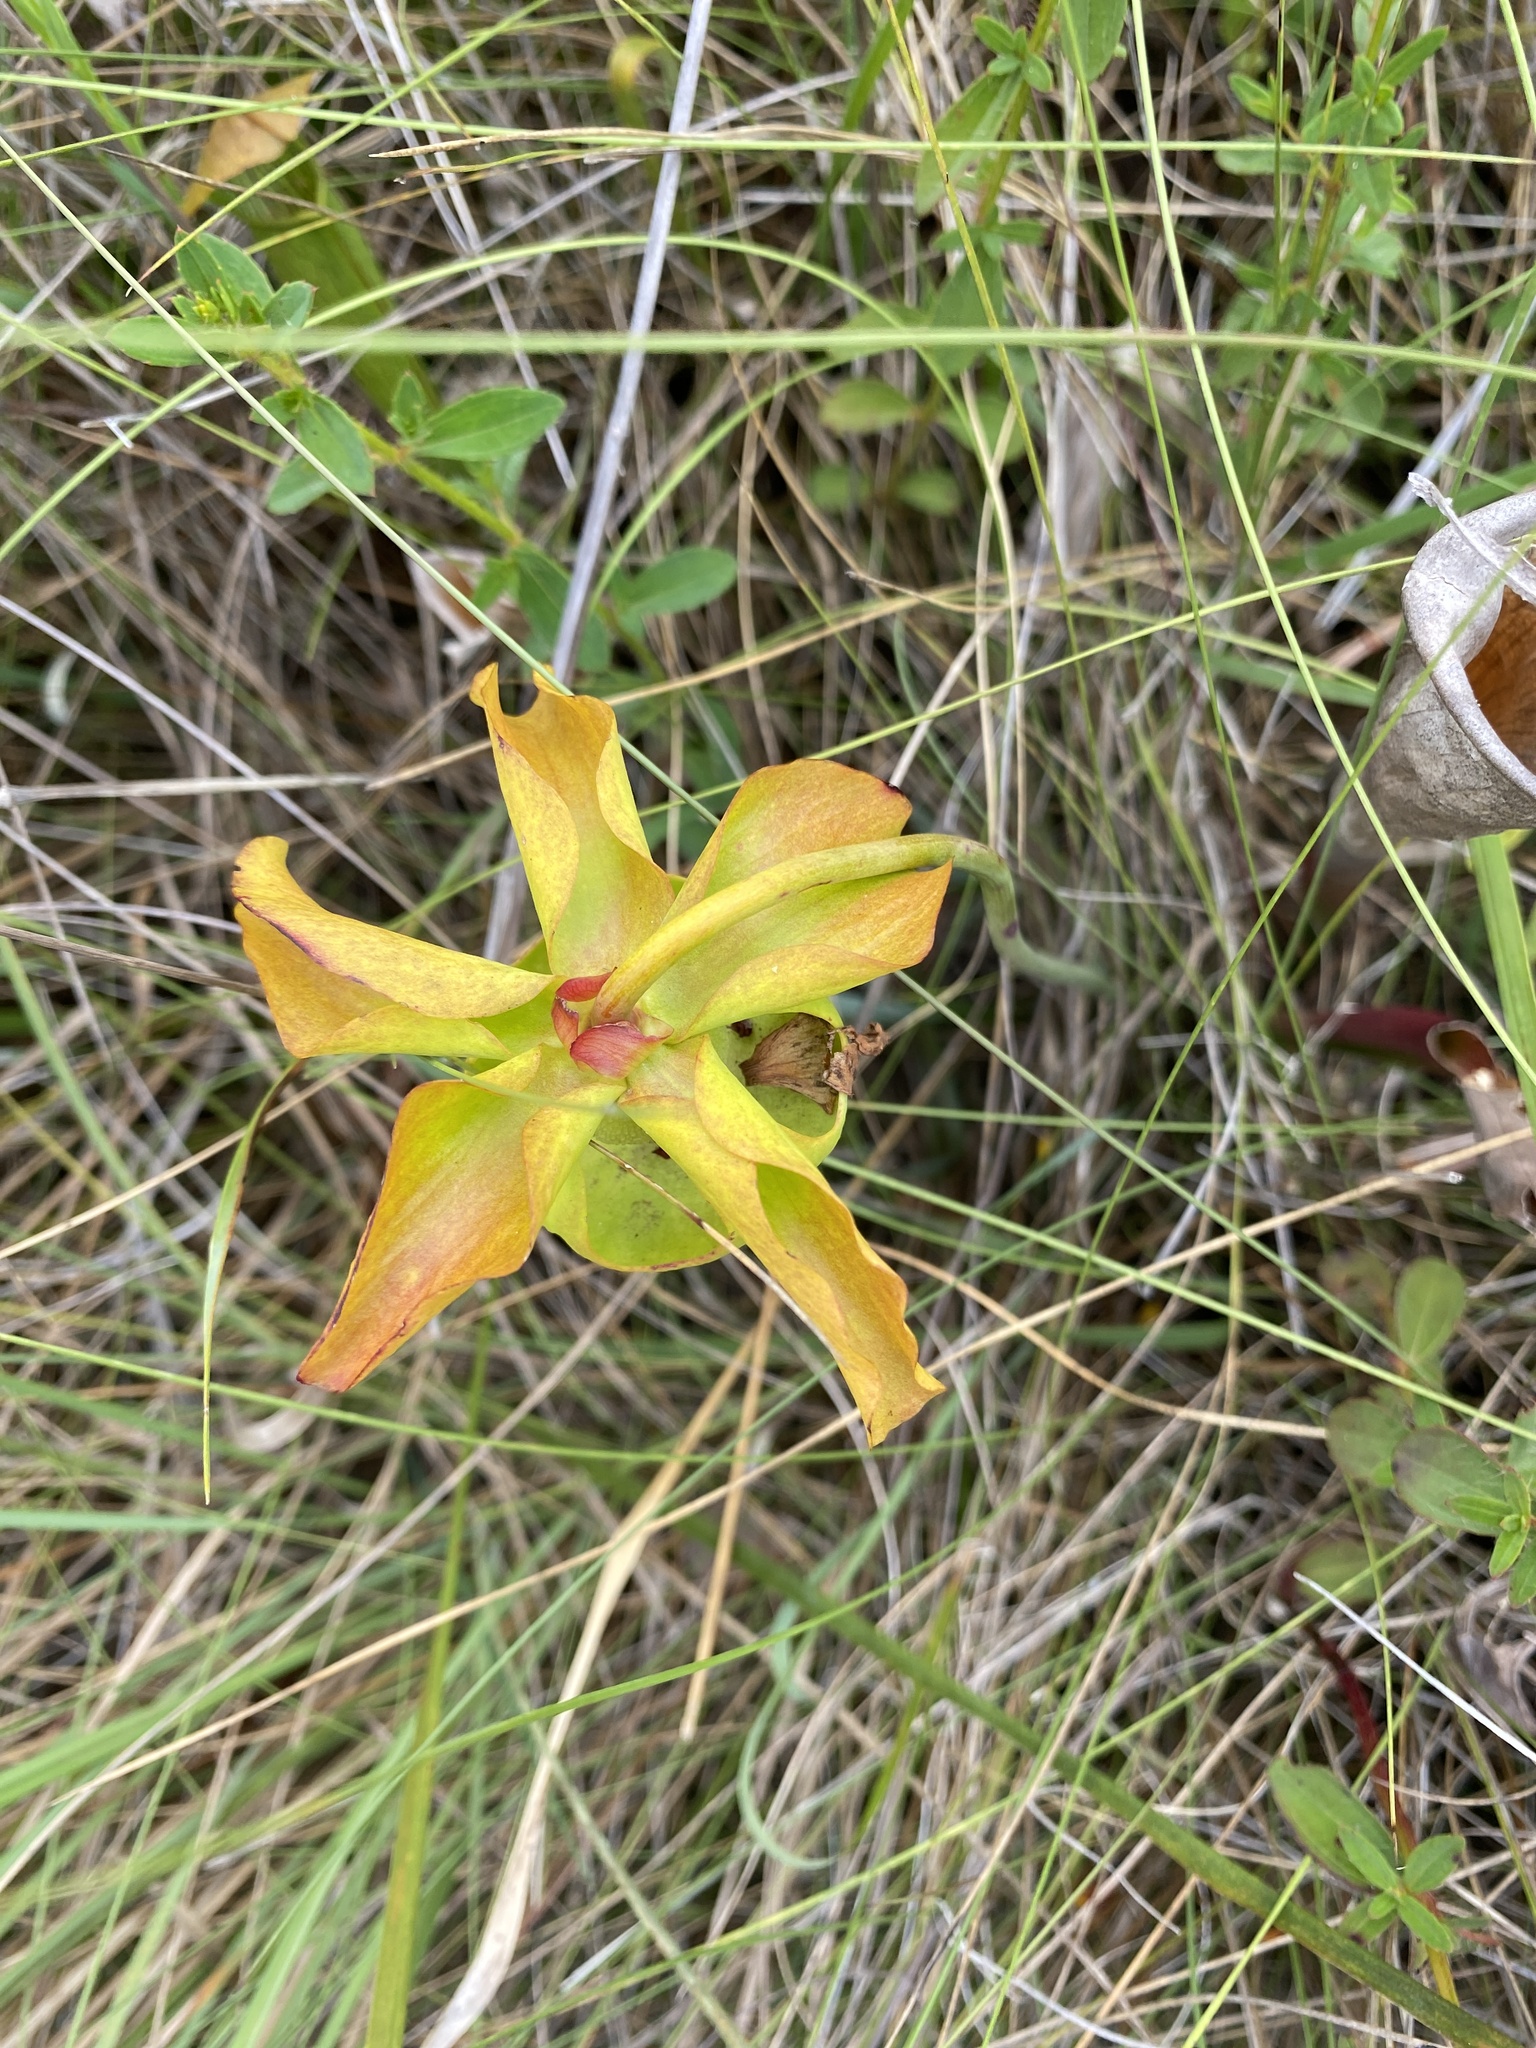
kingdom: Plantae
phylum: Tracheophyta
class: Magnoliopsida
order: Ericales
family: Sarraceniaceae
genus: Sarracenia
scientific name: Sarracenia alata
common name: Yellow trumpets
